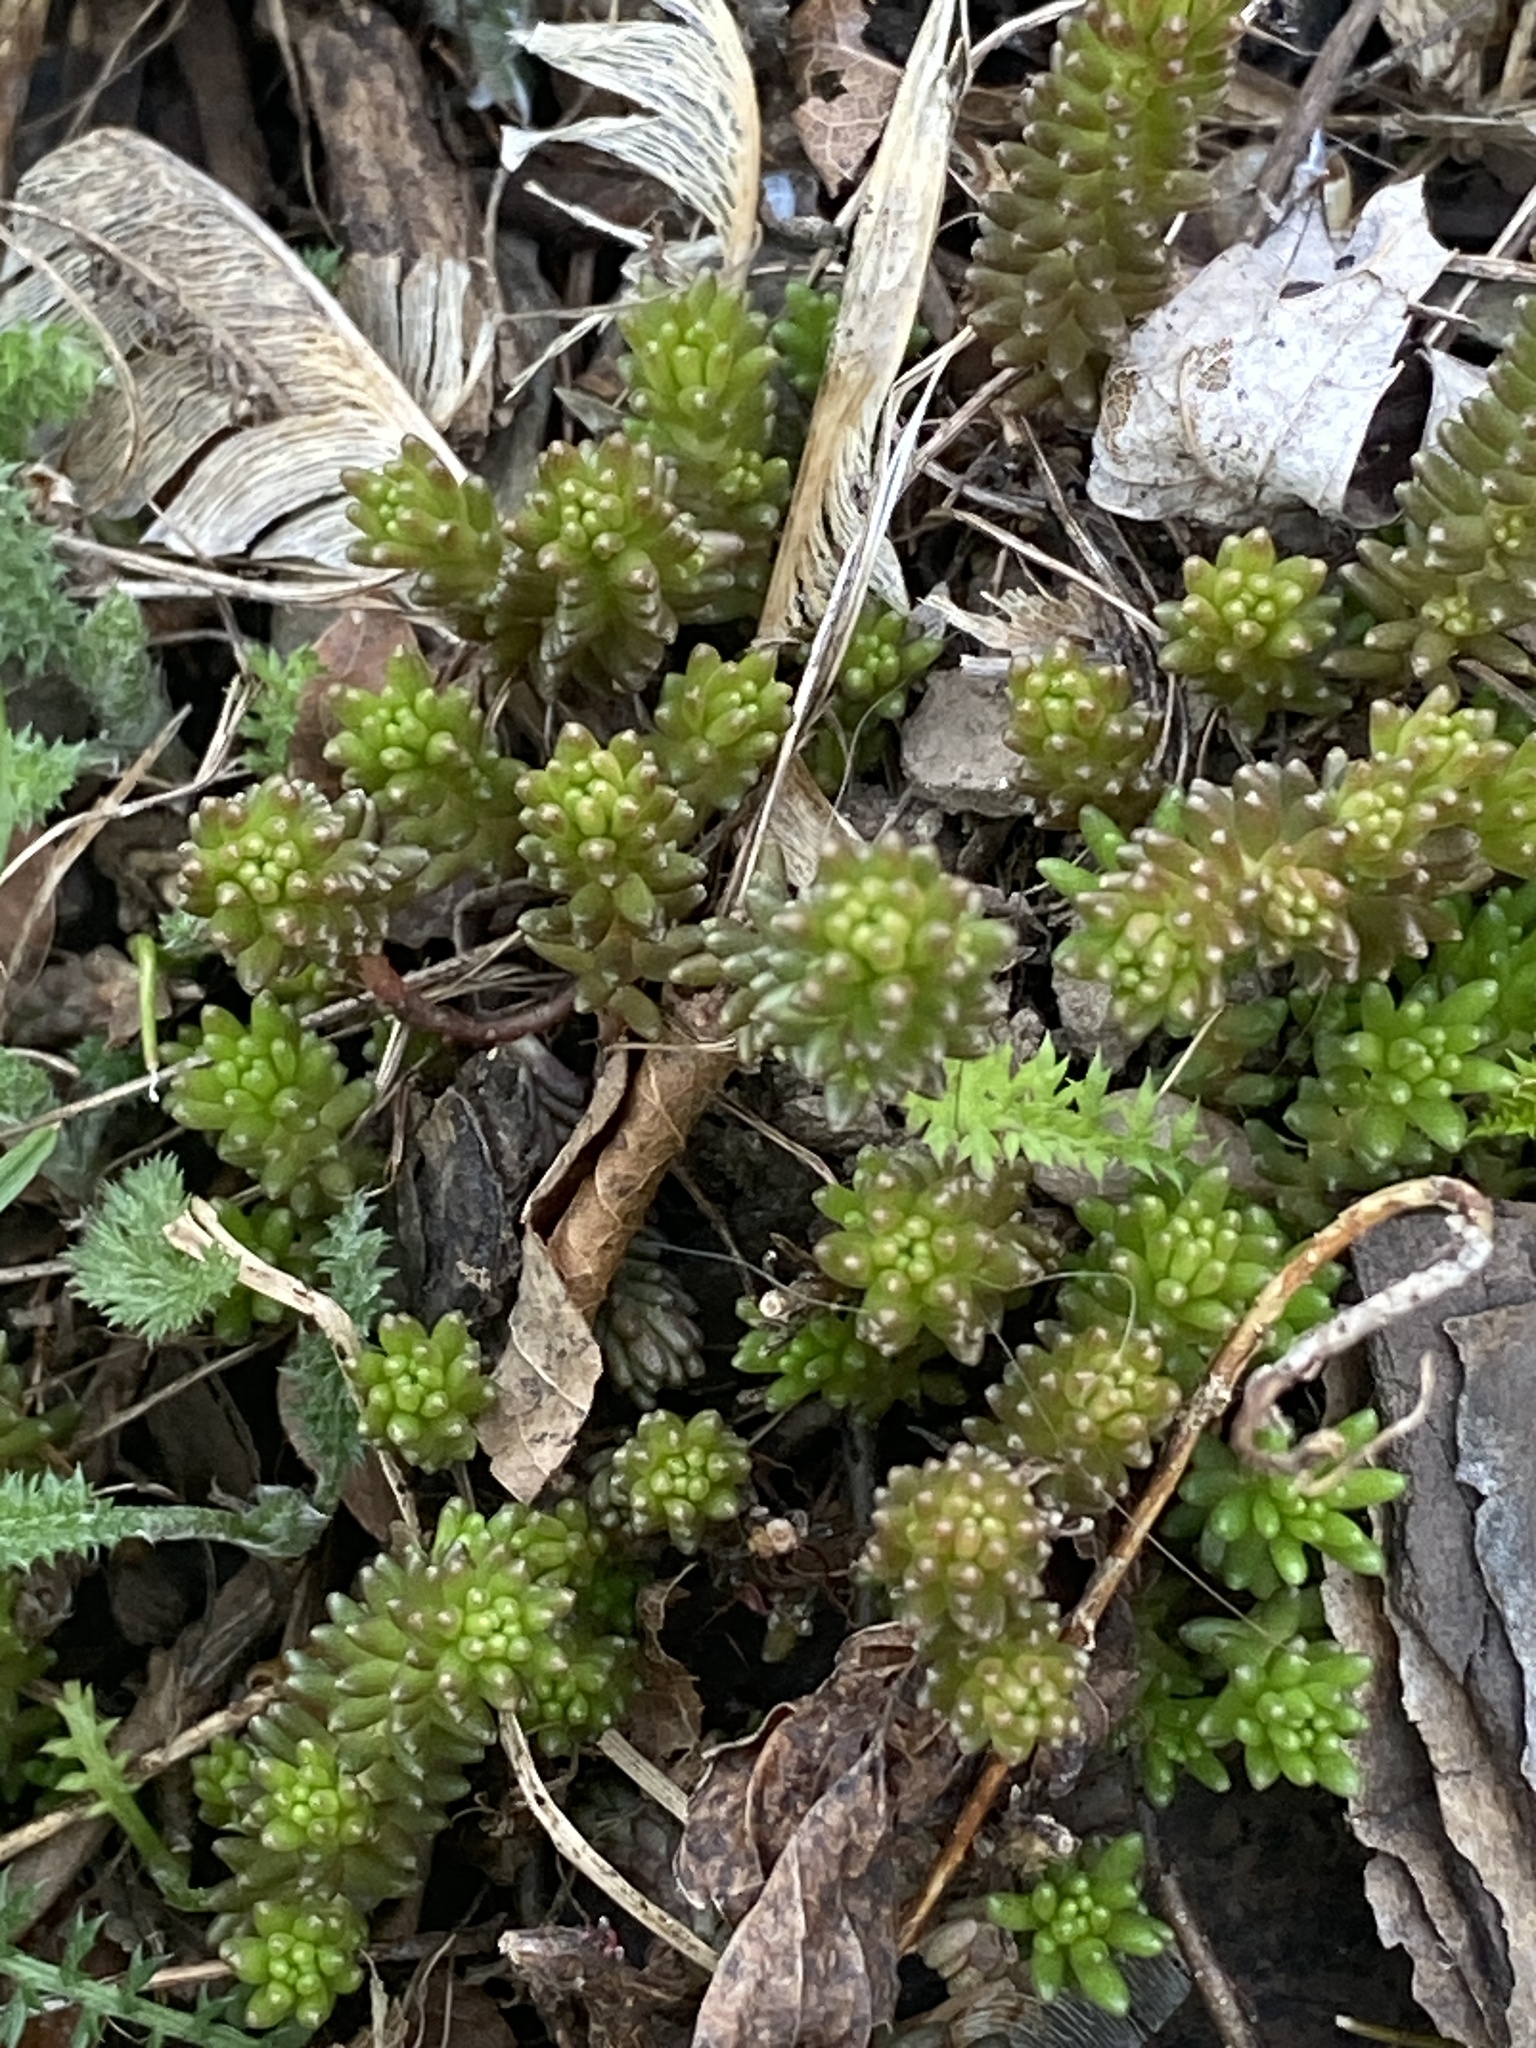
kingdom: Plantae
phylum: Tracheophyta
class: Magnoliopsida
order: Saxifragales
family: Crassulaceae
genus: Sedum
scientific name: Sedum sexangulare
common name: Tasteless stonecrop
